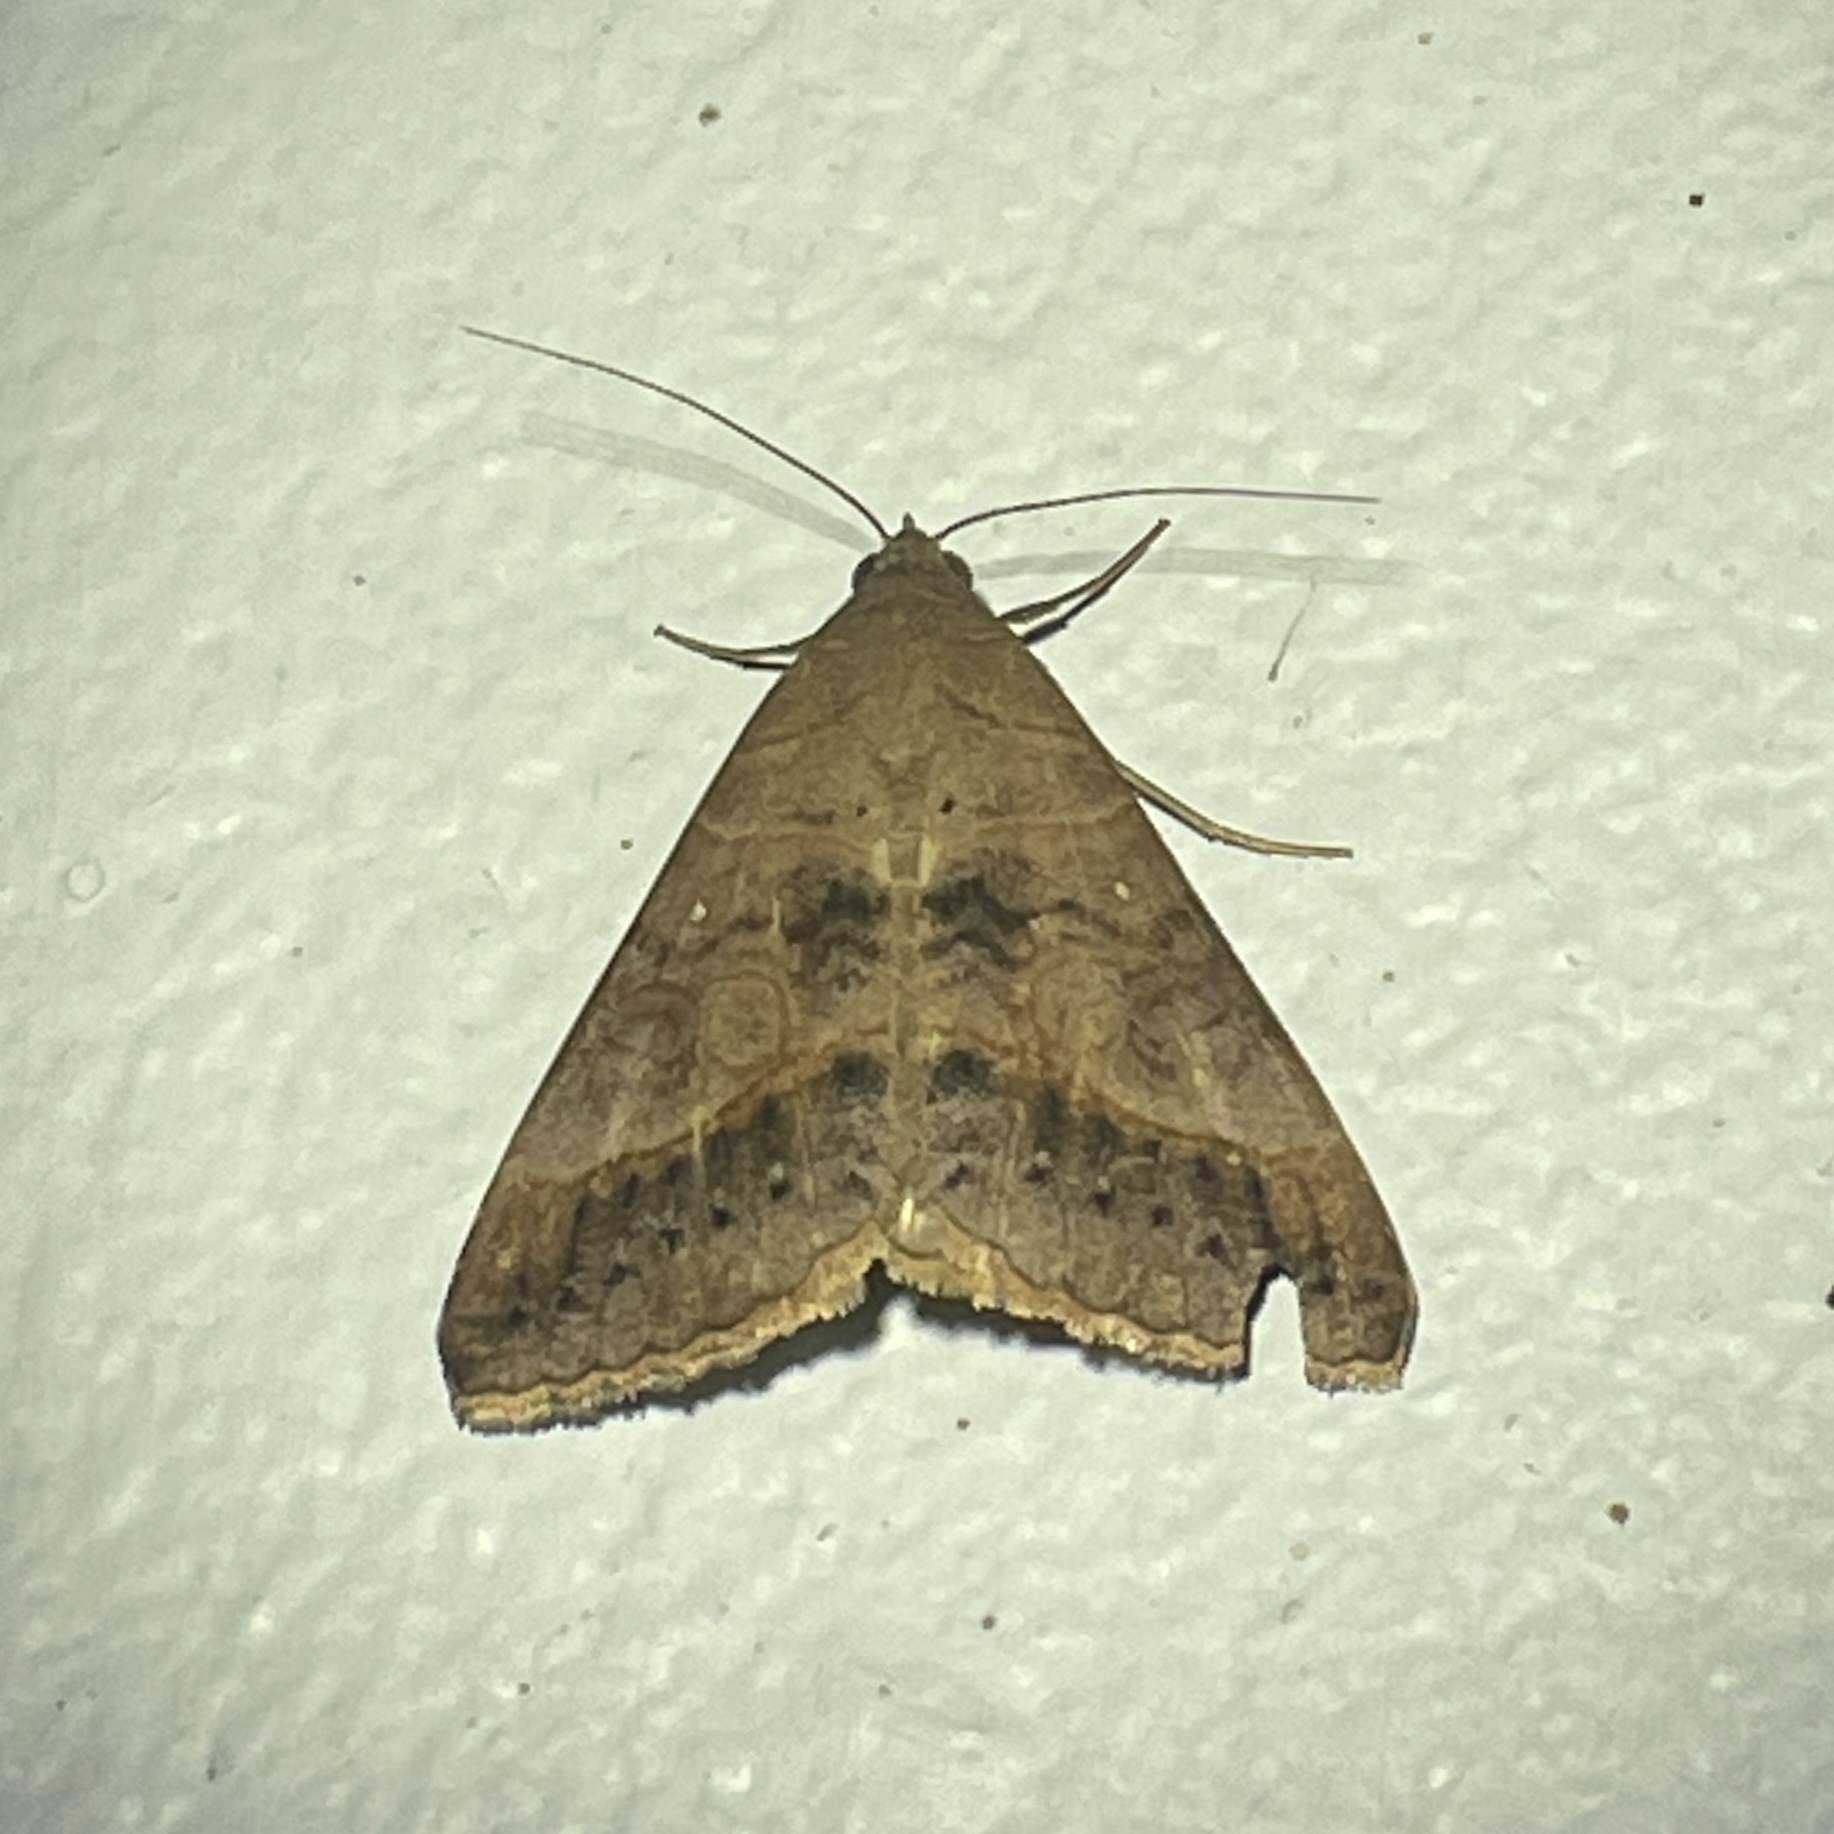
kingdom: Animalia
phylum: Arthropoda
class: Insecta
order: Lepidoptera
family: Erebidae
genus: Mocis
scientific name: Mocis latipes
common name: Striped grass looper
